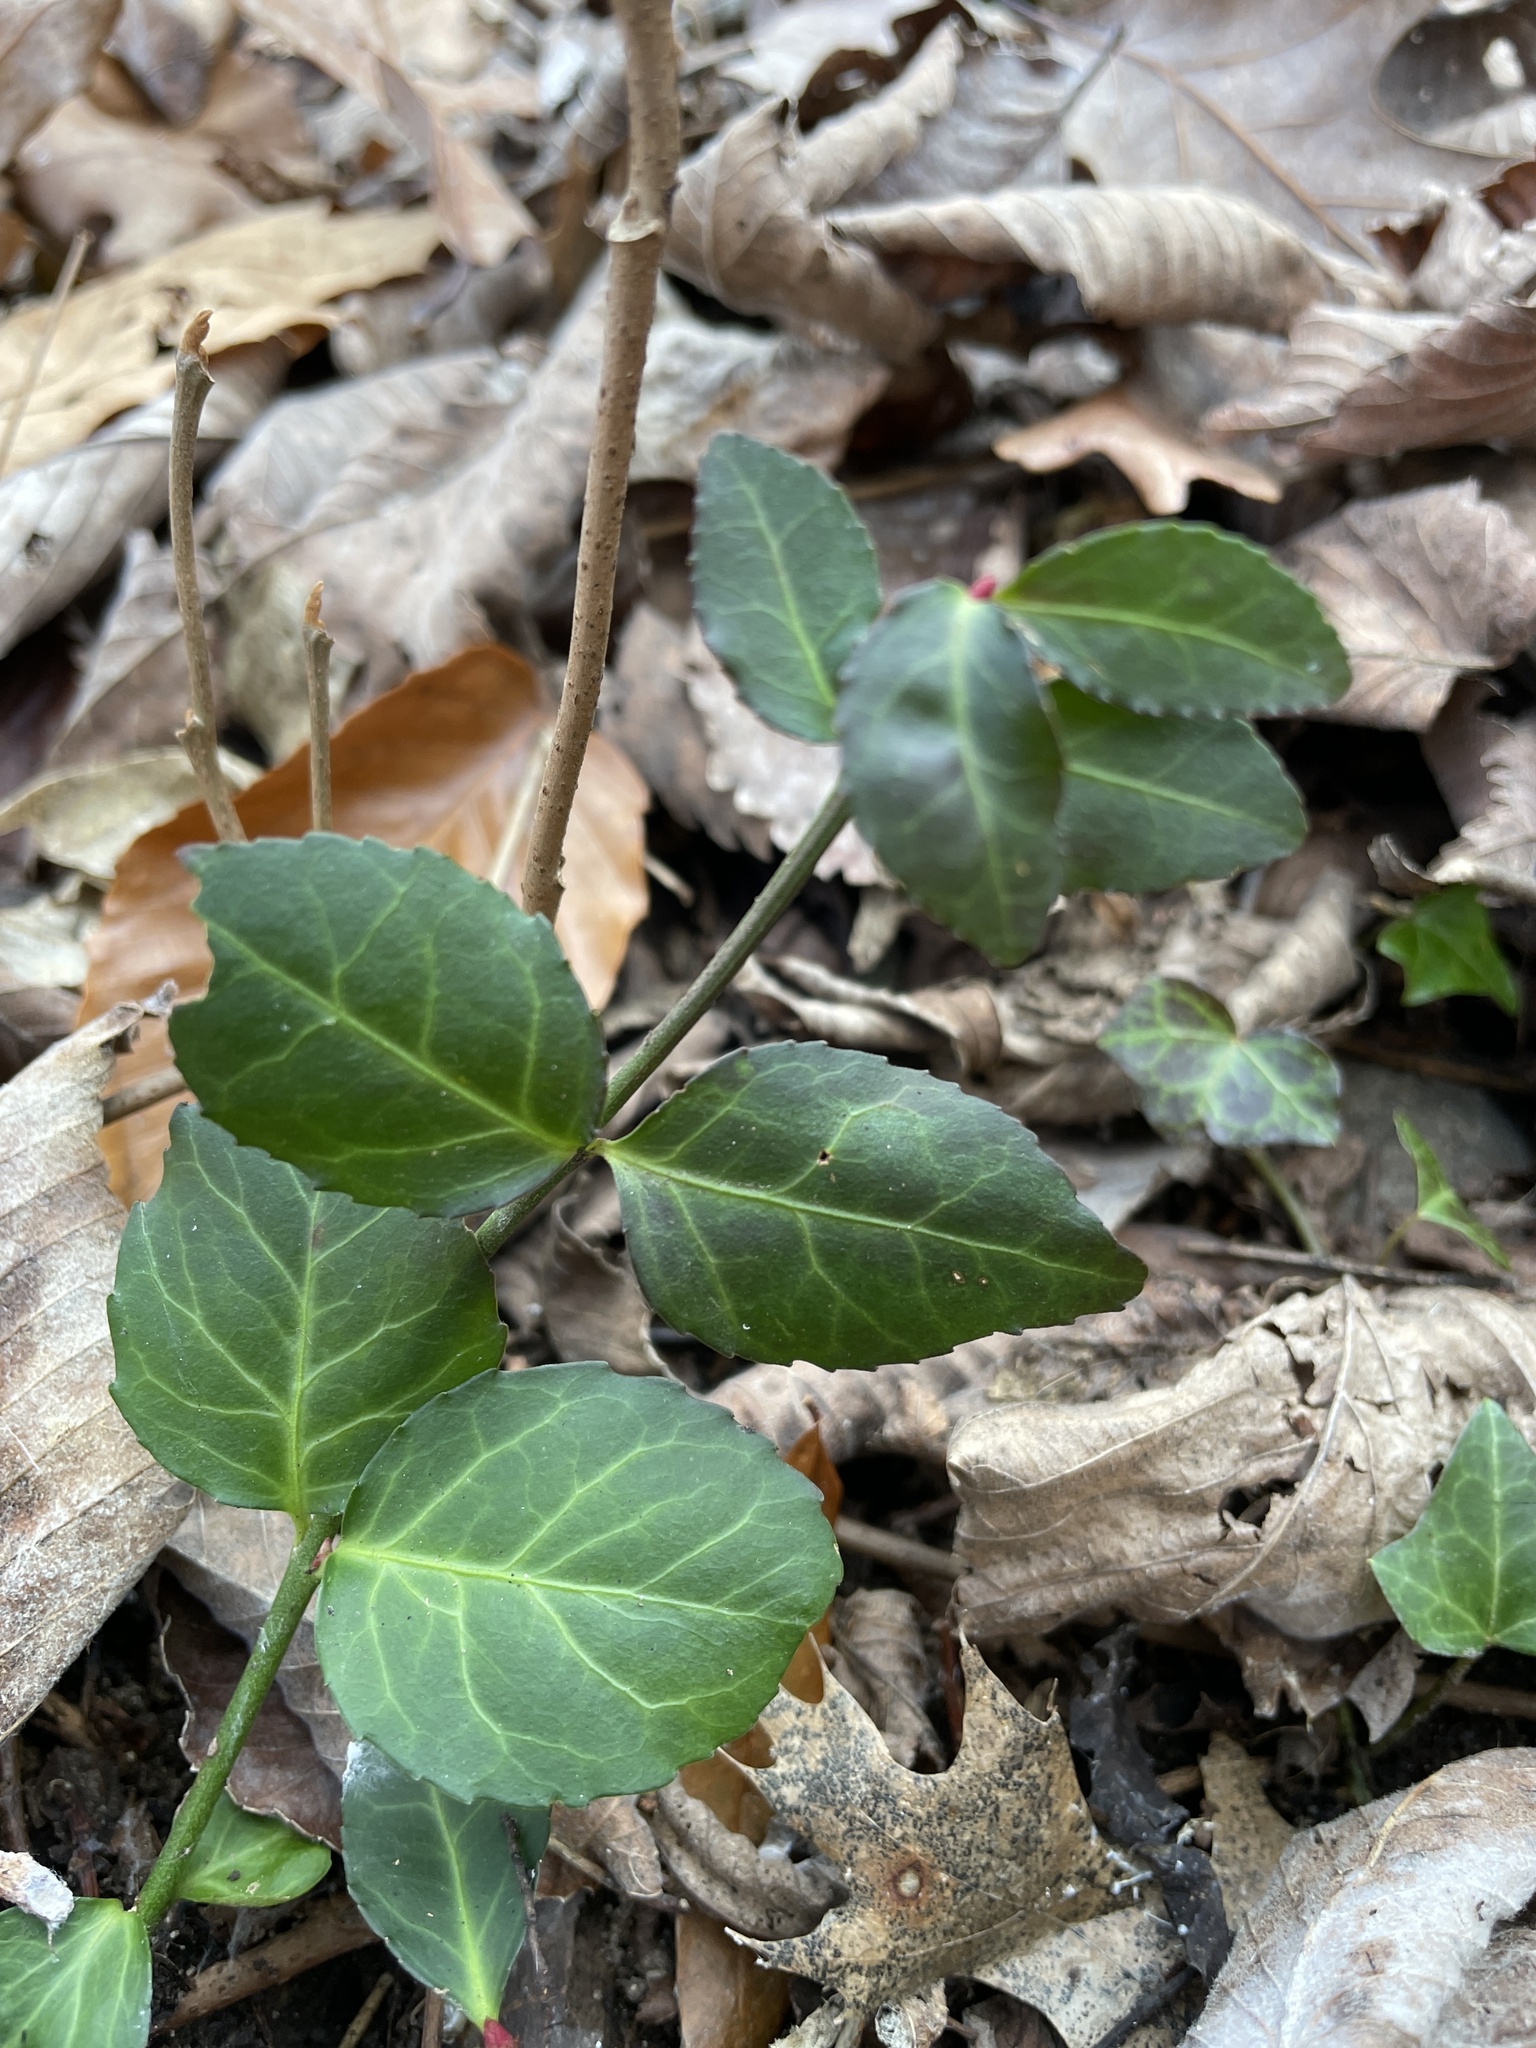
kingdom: Plantae
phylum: Tracheophyta
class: Magnoliopsida
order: Celastrales
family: Celastraceae
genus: Euonymus
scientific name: Euonymus fortunei
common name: Climbing euonymus
